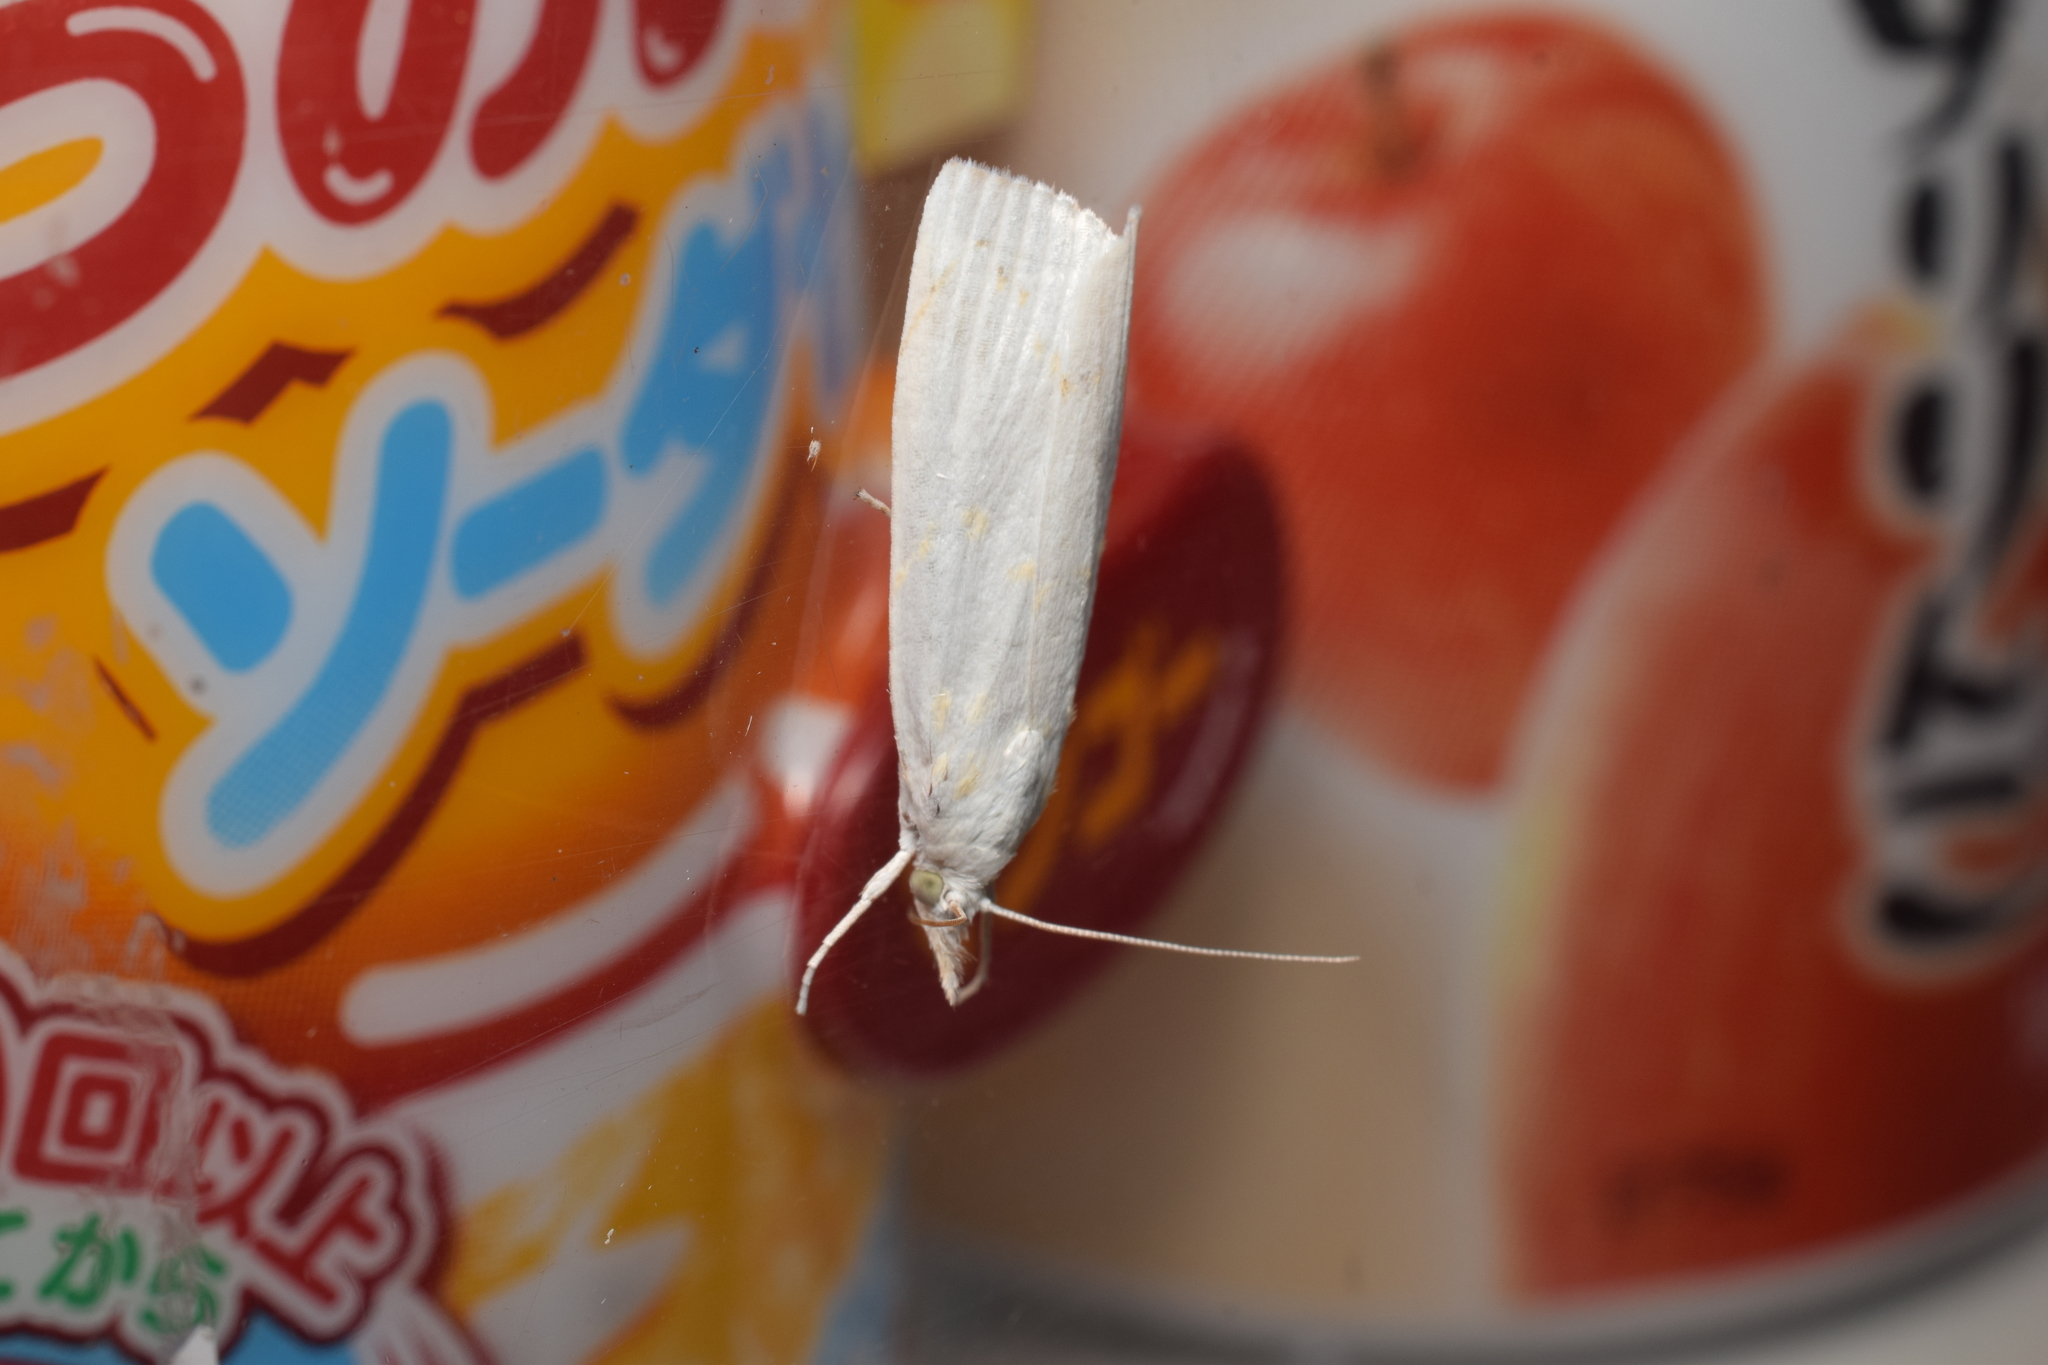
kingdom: Animalia
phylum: Arthropoda
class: Insecta
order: Lepidoptera
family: Crambidae
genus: Calamotropha
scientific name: Calamotropha paludella
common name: Bulrush veneer
